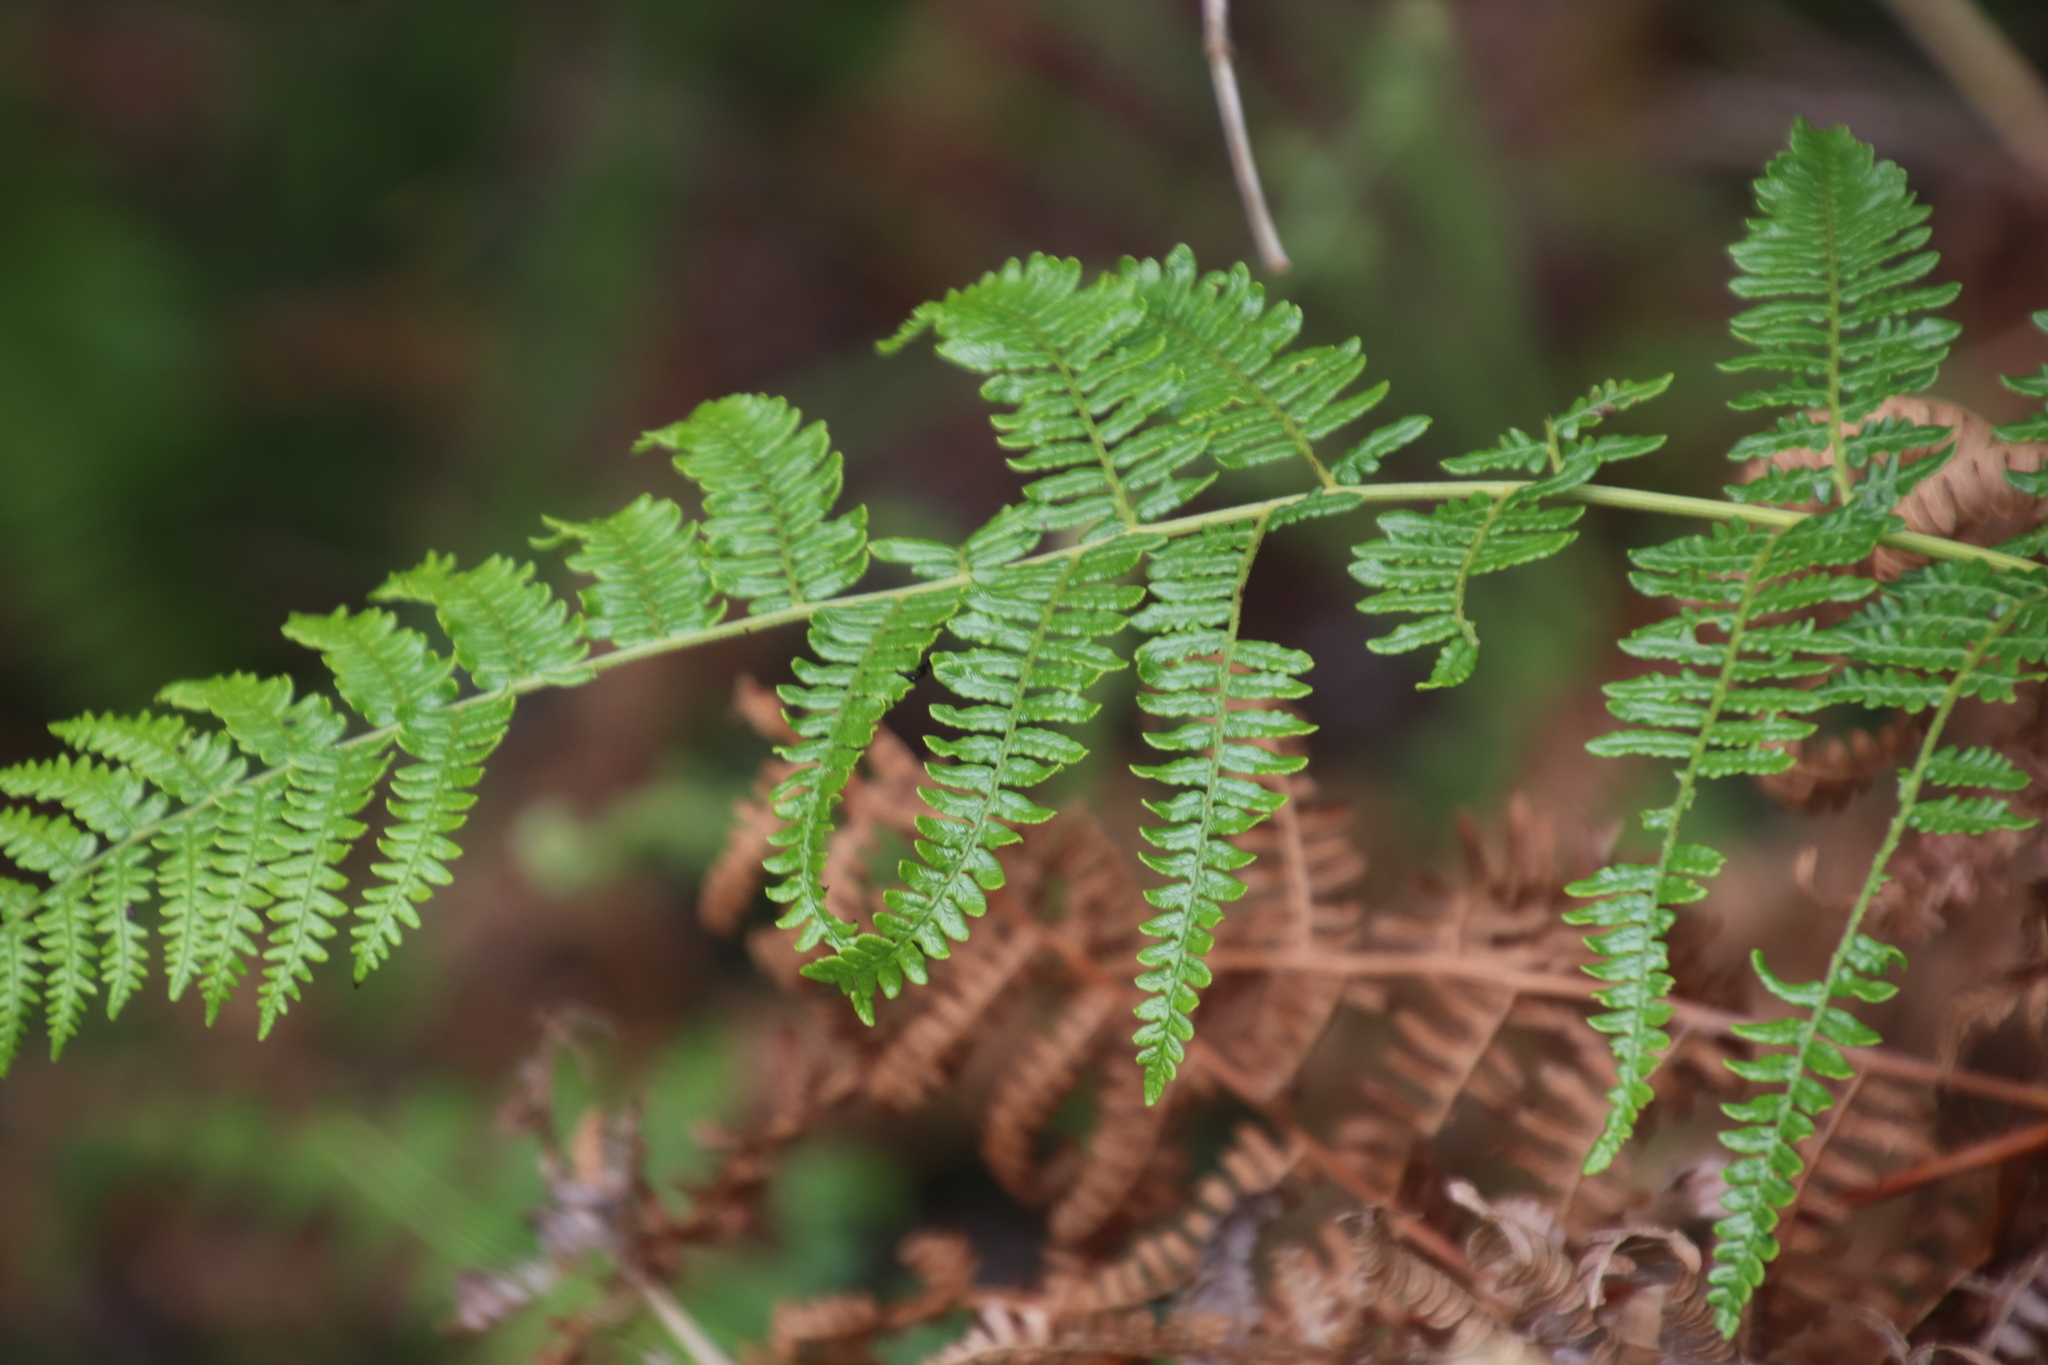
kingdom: Plantae
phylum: Tracheophyta
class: Polypodiopsida
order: Polypodiales
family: Dennstaedtiaceae
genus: Pteridium
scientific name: Pteridium aquilinum
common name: Bracken
